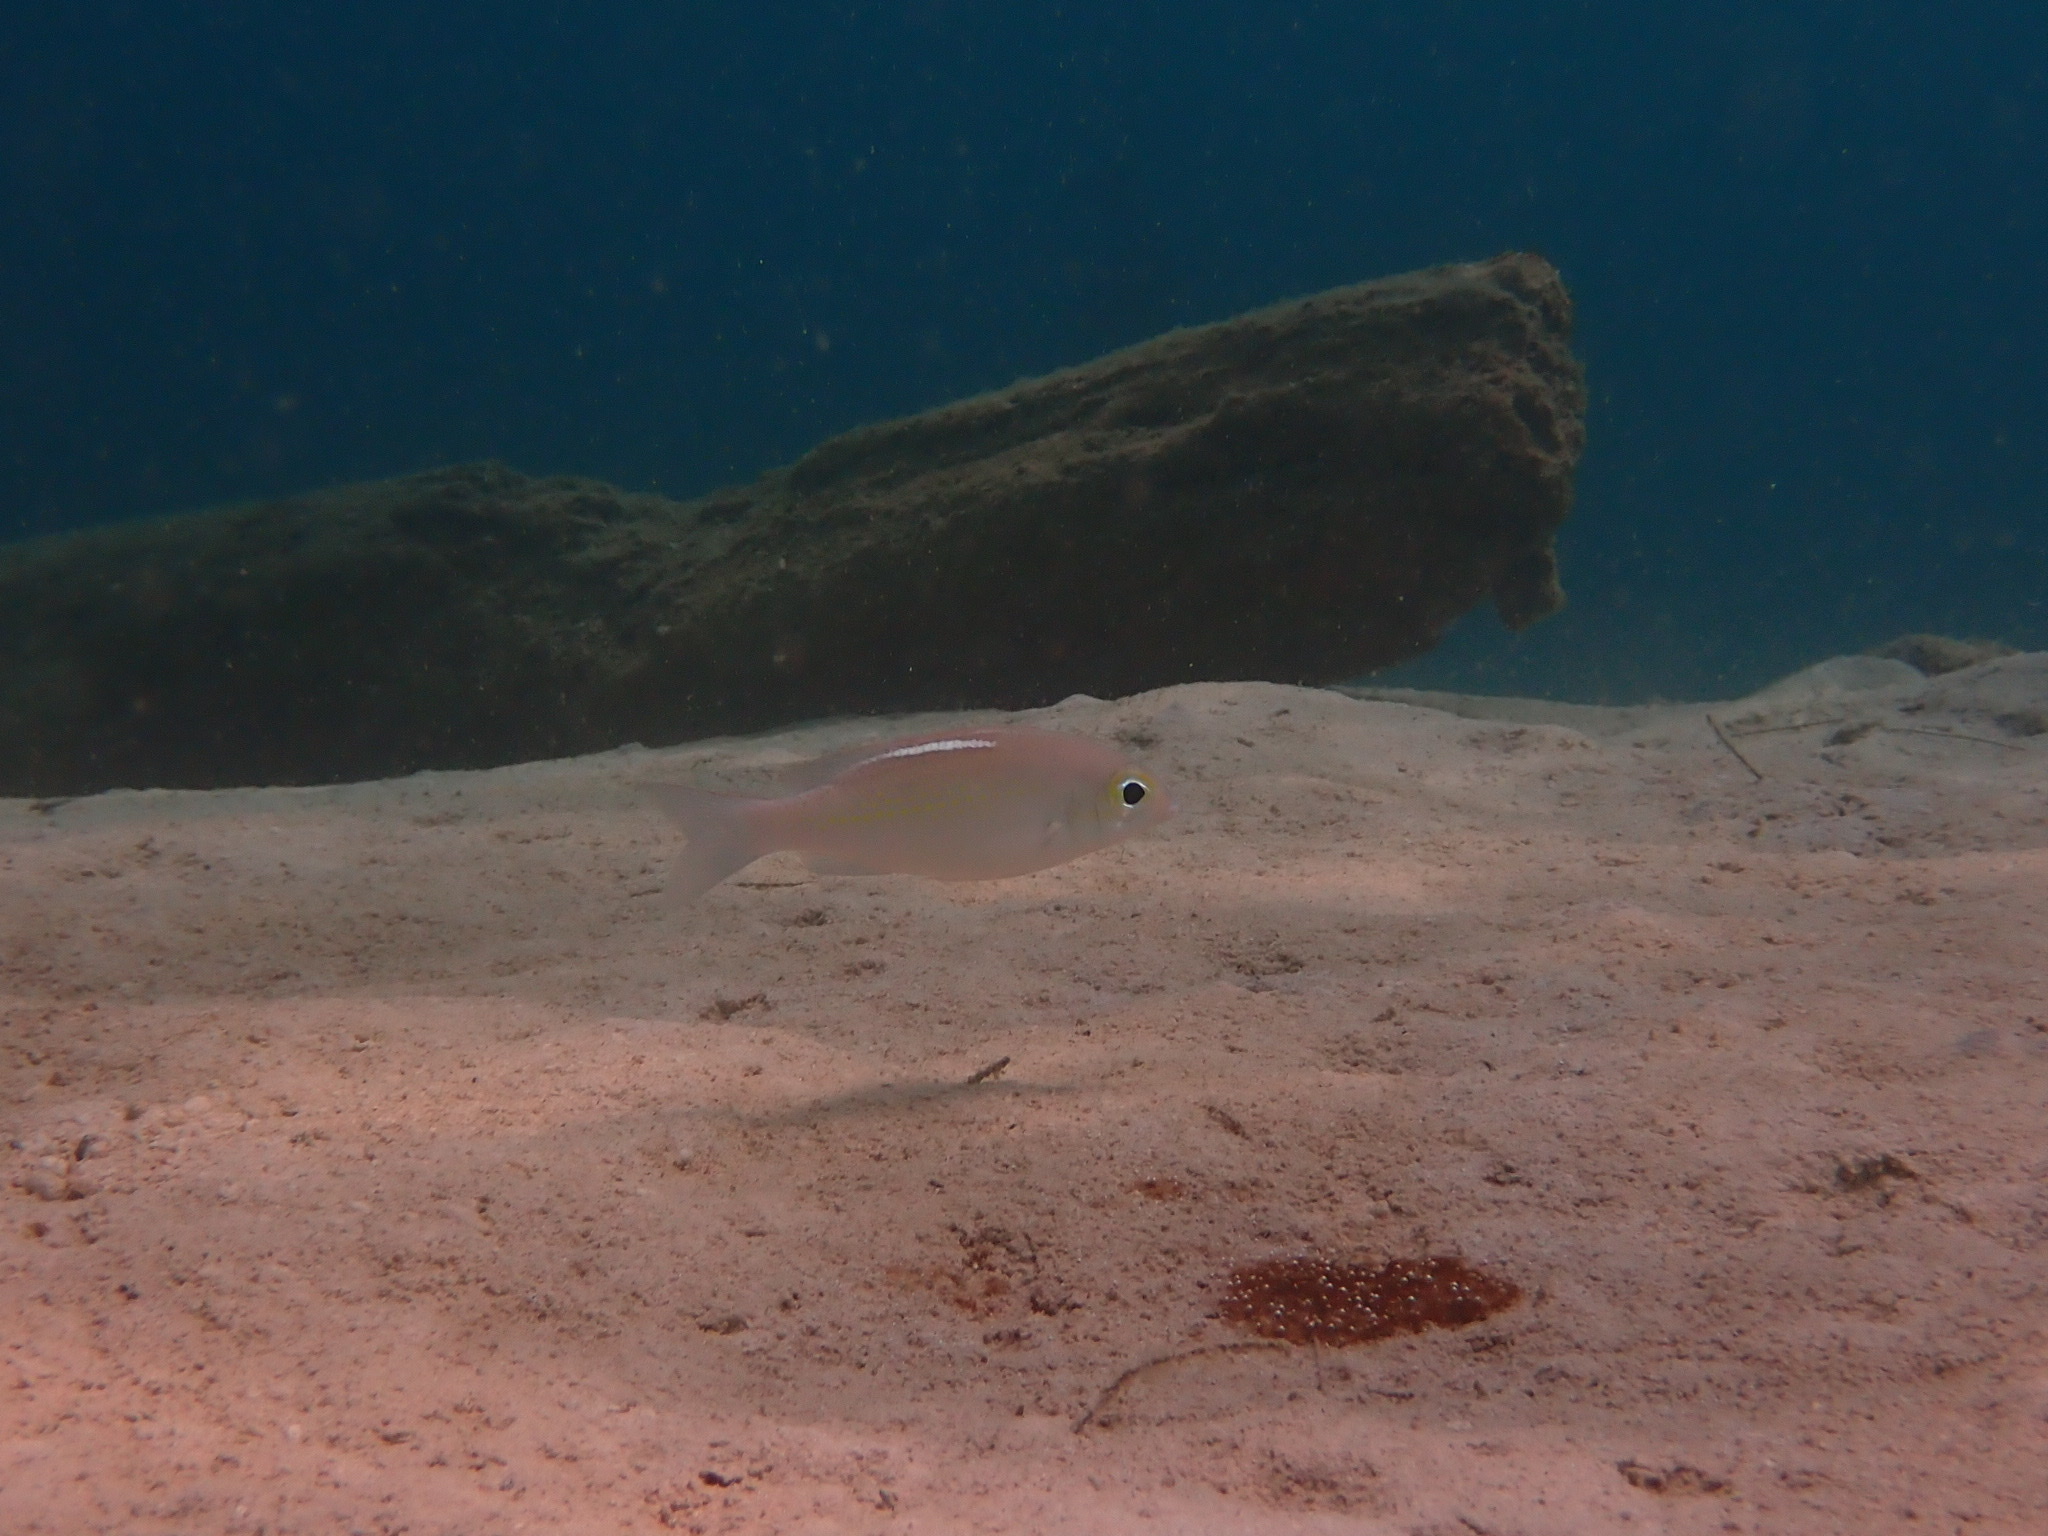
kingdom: Animalia
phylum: Chordata
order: Perciformes
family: Nemipteridae
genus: Scolopsis
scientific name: Scolopsis ciliata
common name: Ciliate spinecheek
